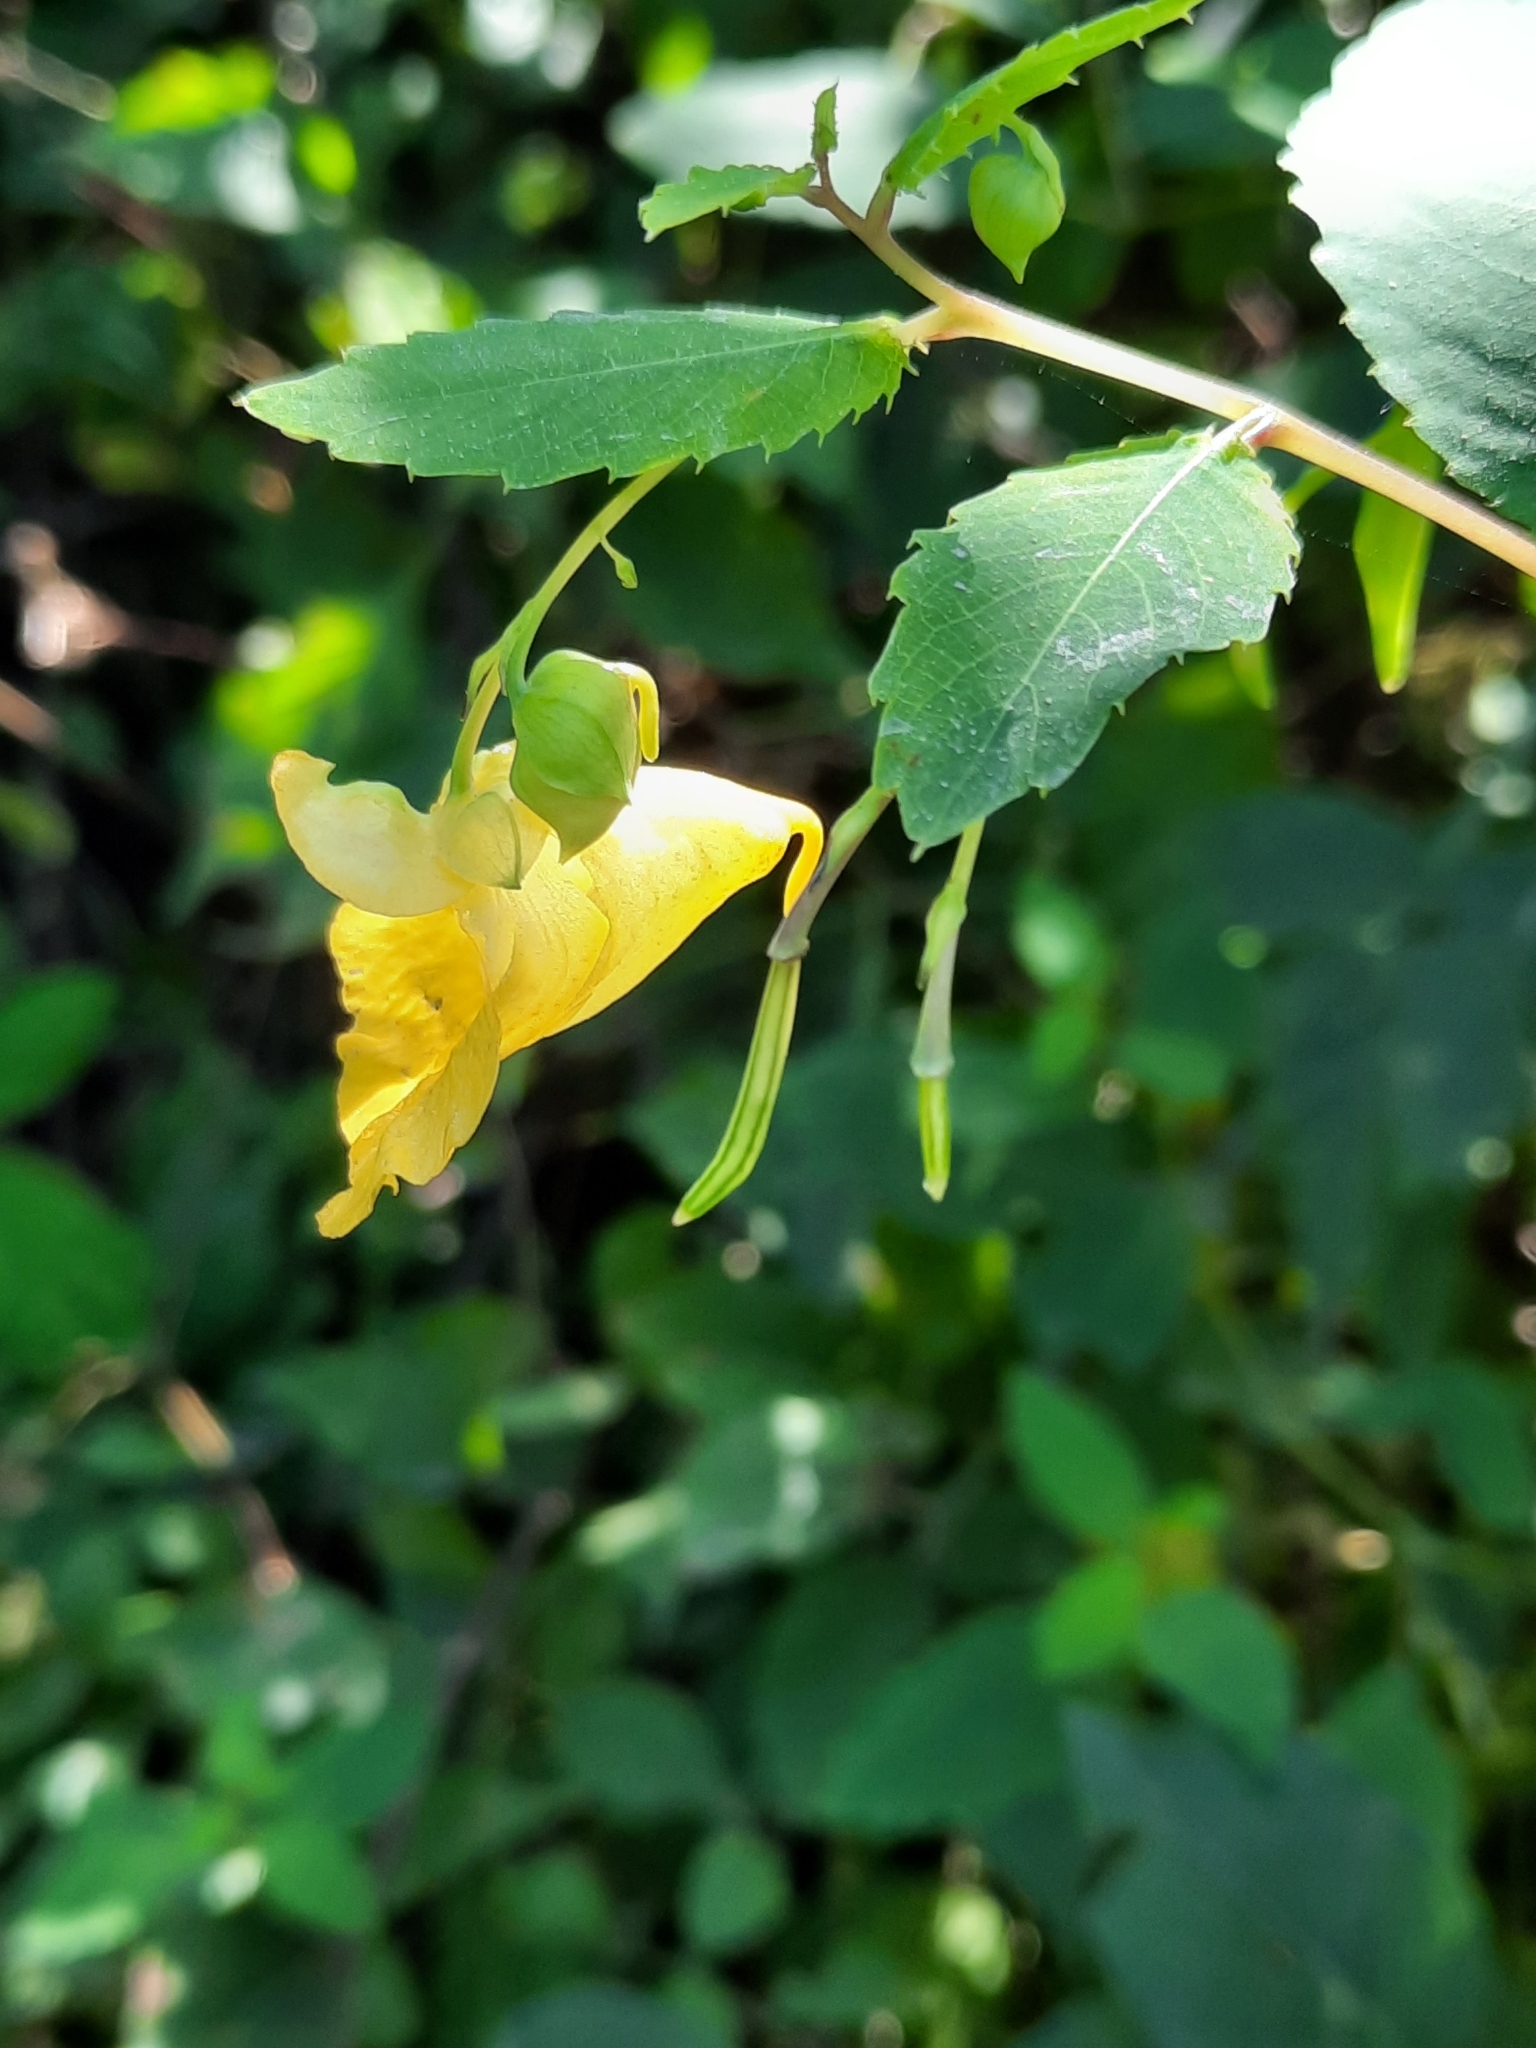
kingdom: Plantae
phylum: Tracheophyta
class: Magnoliopsida
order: Ericales
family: Balsaminaceae
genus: Impatiens
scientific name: Impatiens pallida
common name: Pale snapweed
